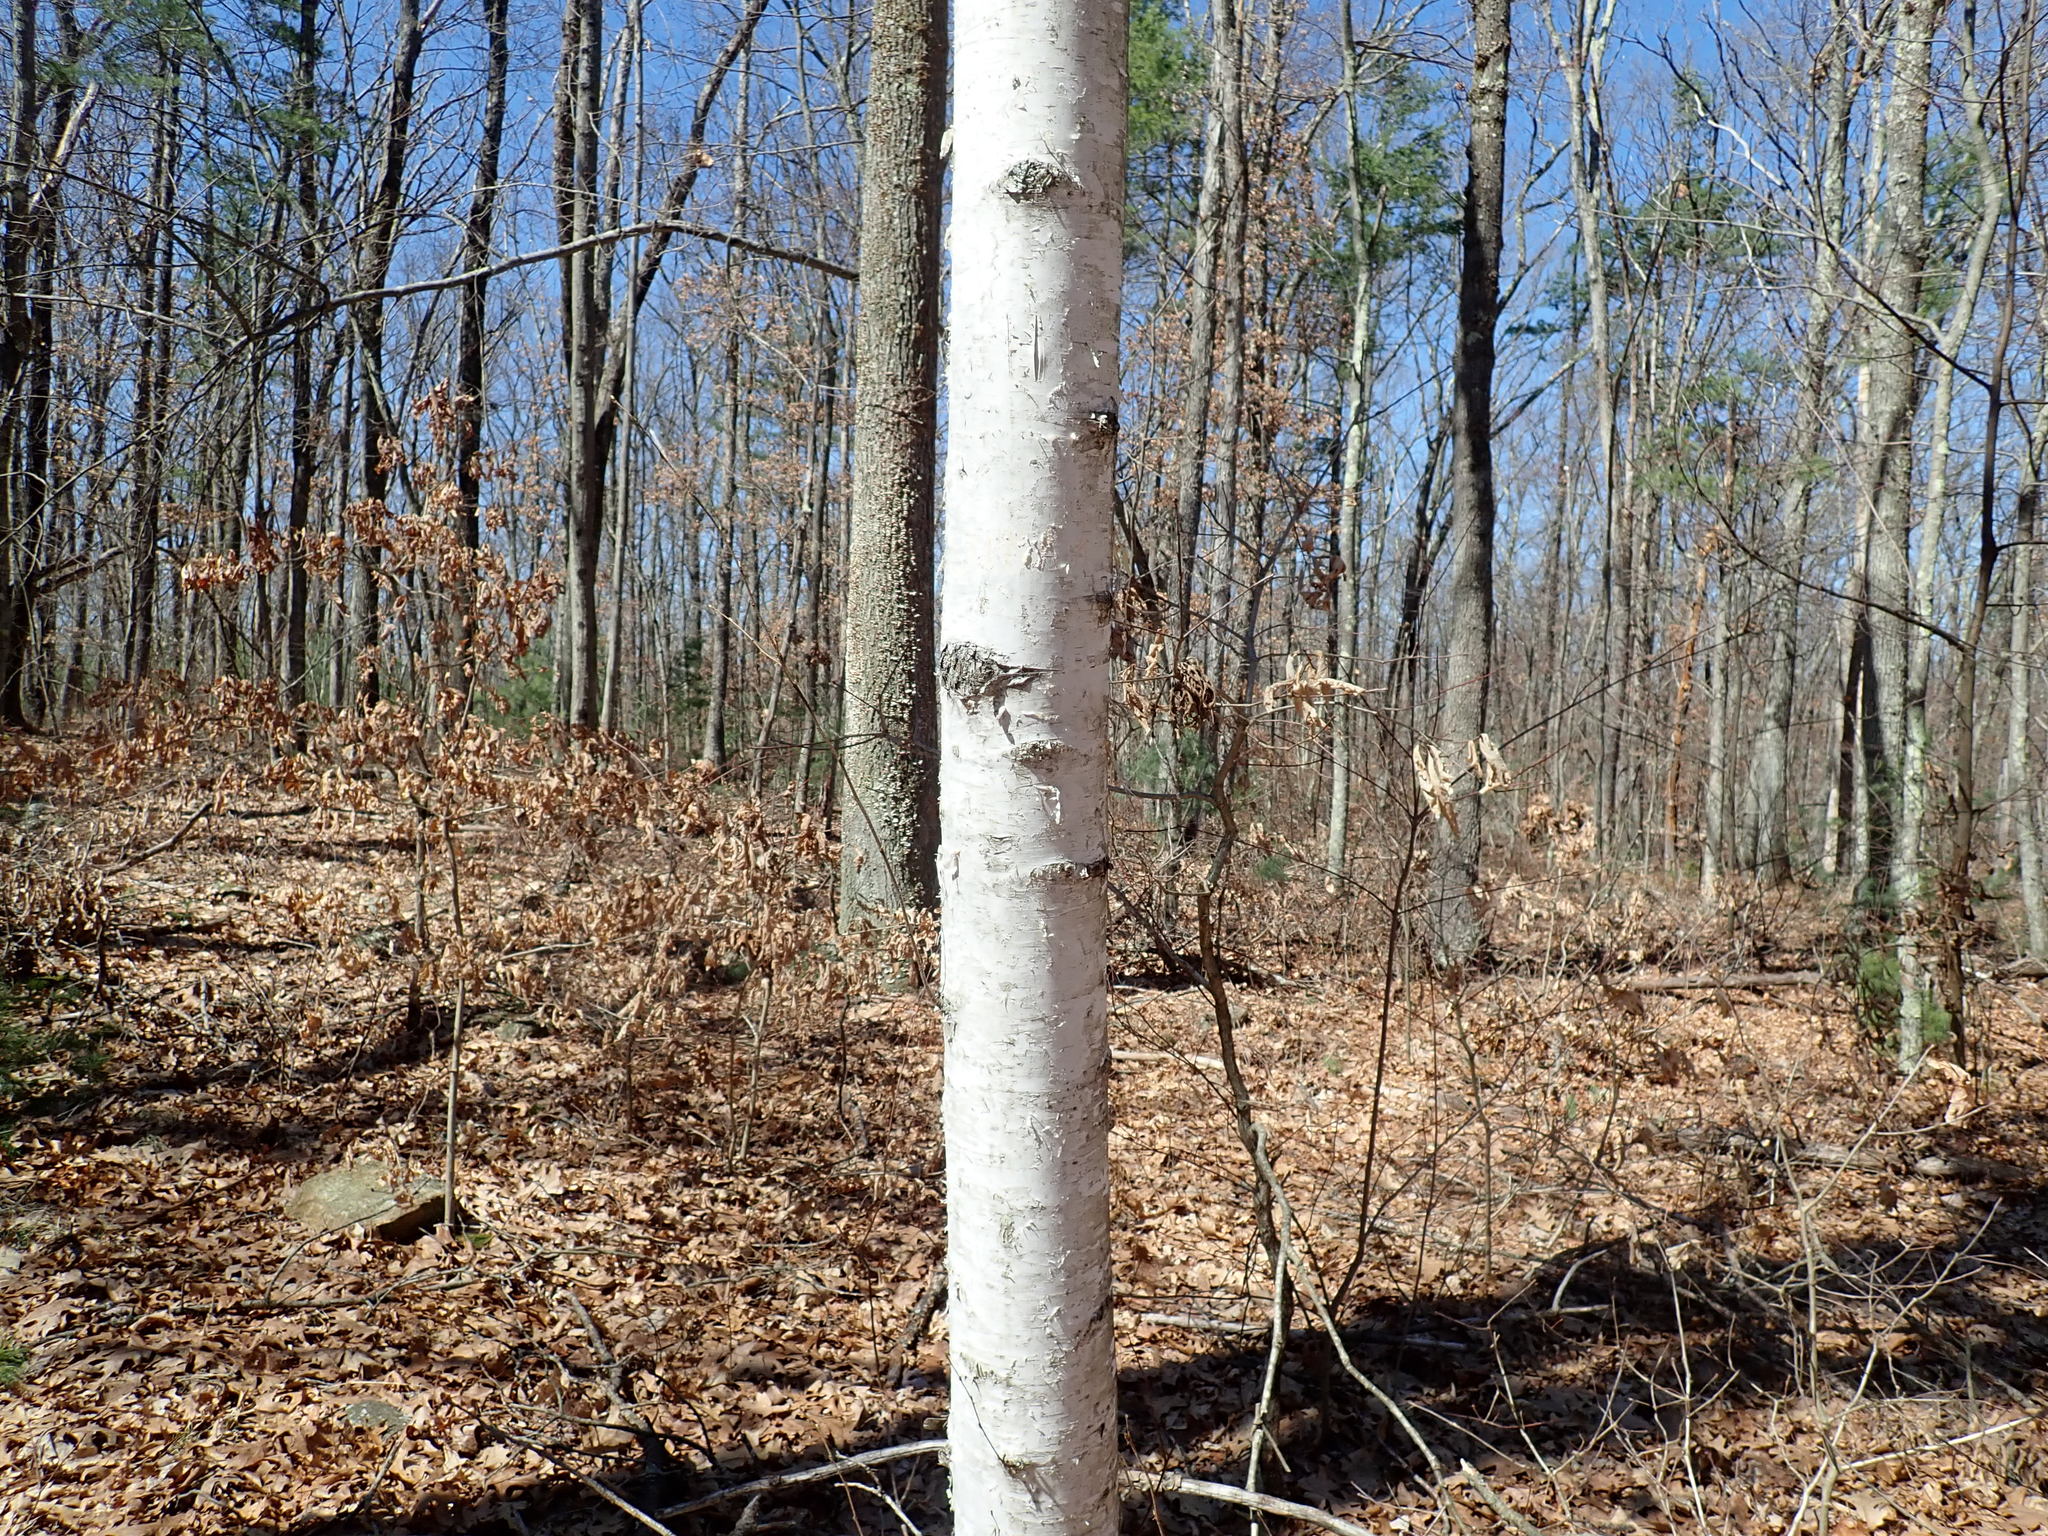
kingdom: Plantae
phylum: Tracheophyta
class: Magnoliopsida
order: Fagales
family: Betulaceae
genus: Betula
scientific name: Betula papyrifera
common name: Paper birch
